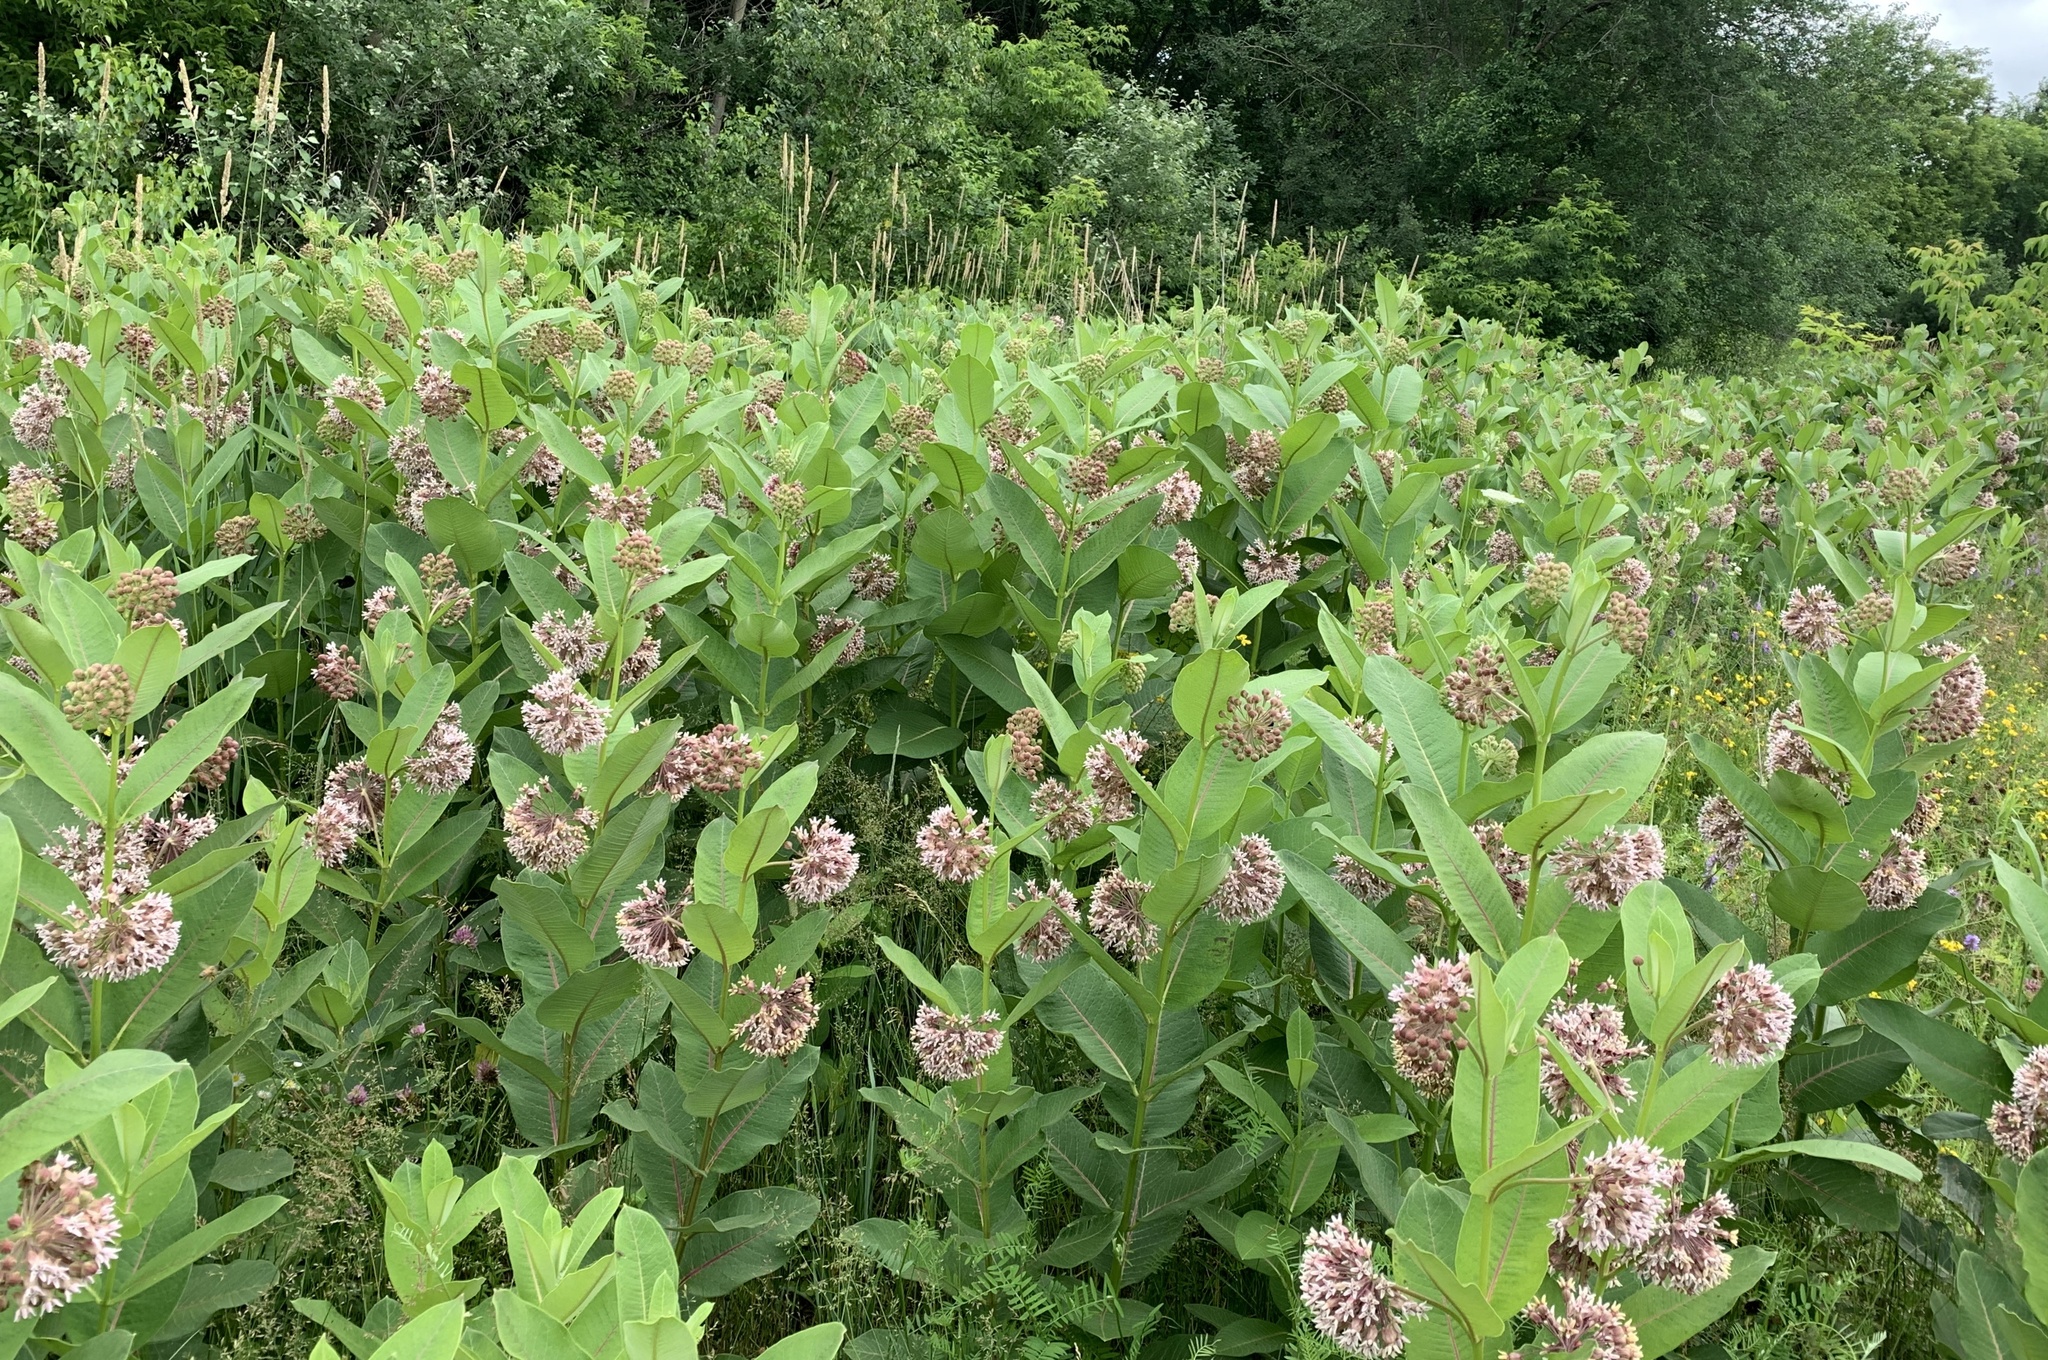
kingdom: Plantae
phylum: Tracheophyta
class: Magnoliopsida
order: Gentianales
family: Apocynaceae
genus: Asclepias
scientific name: Asclepias syriaca
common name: Common milkweed
